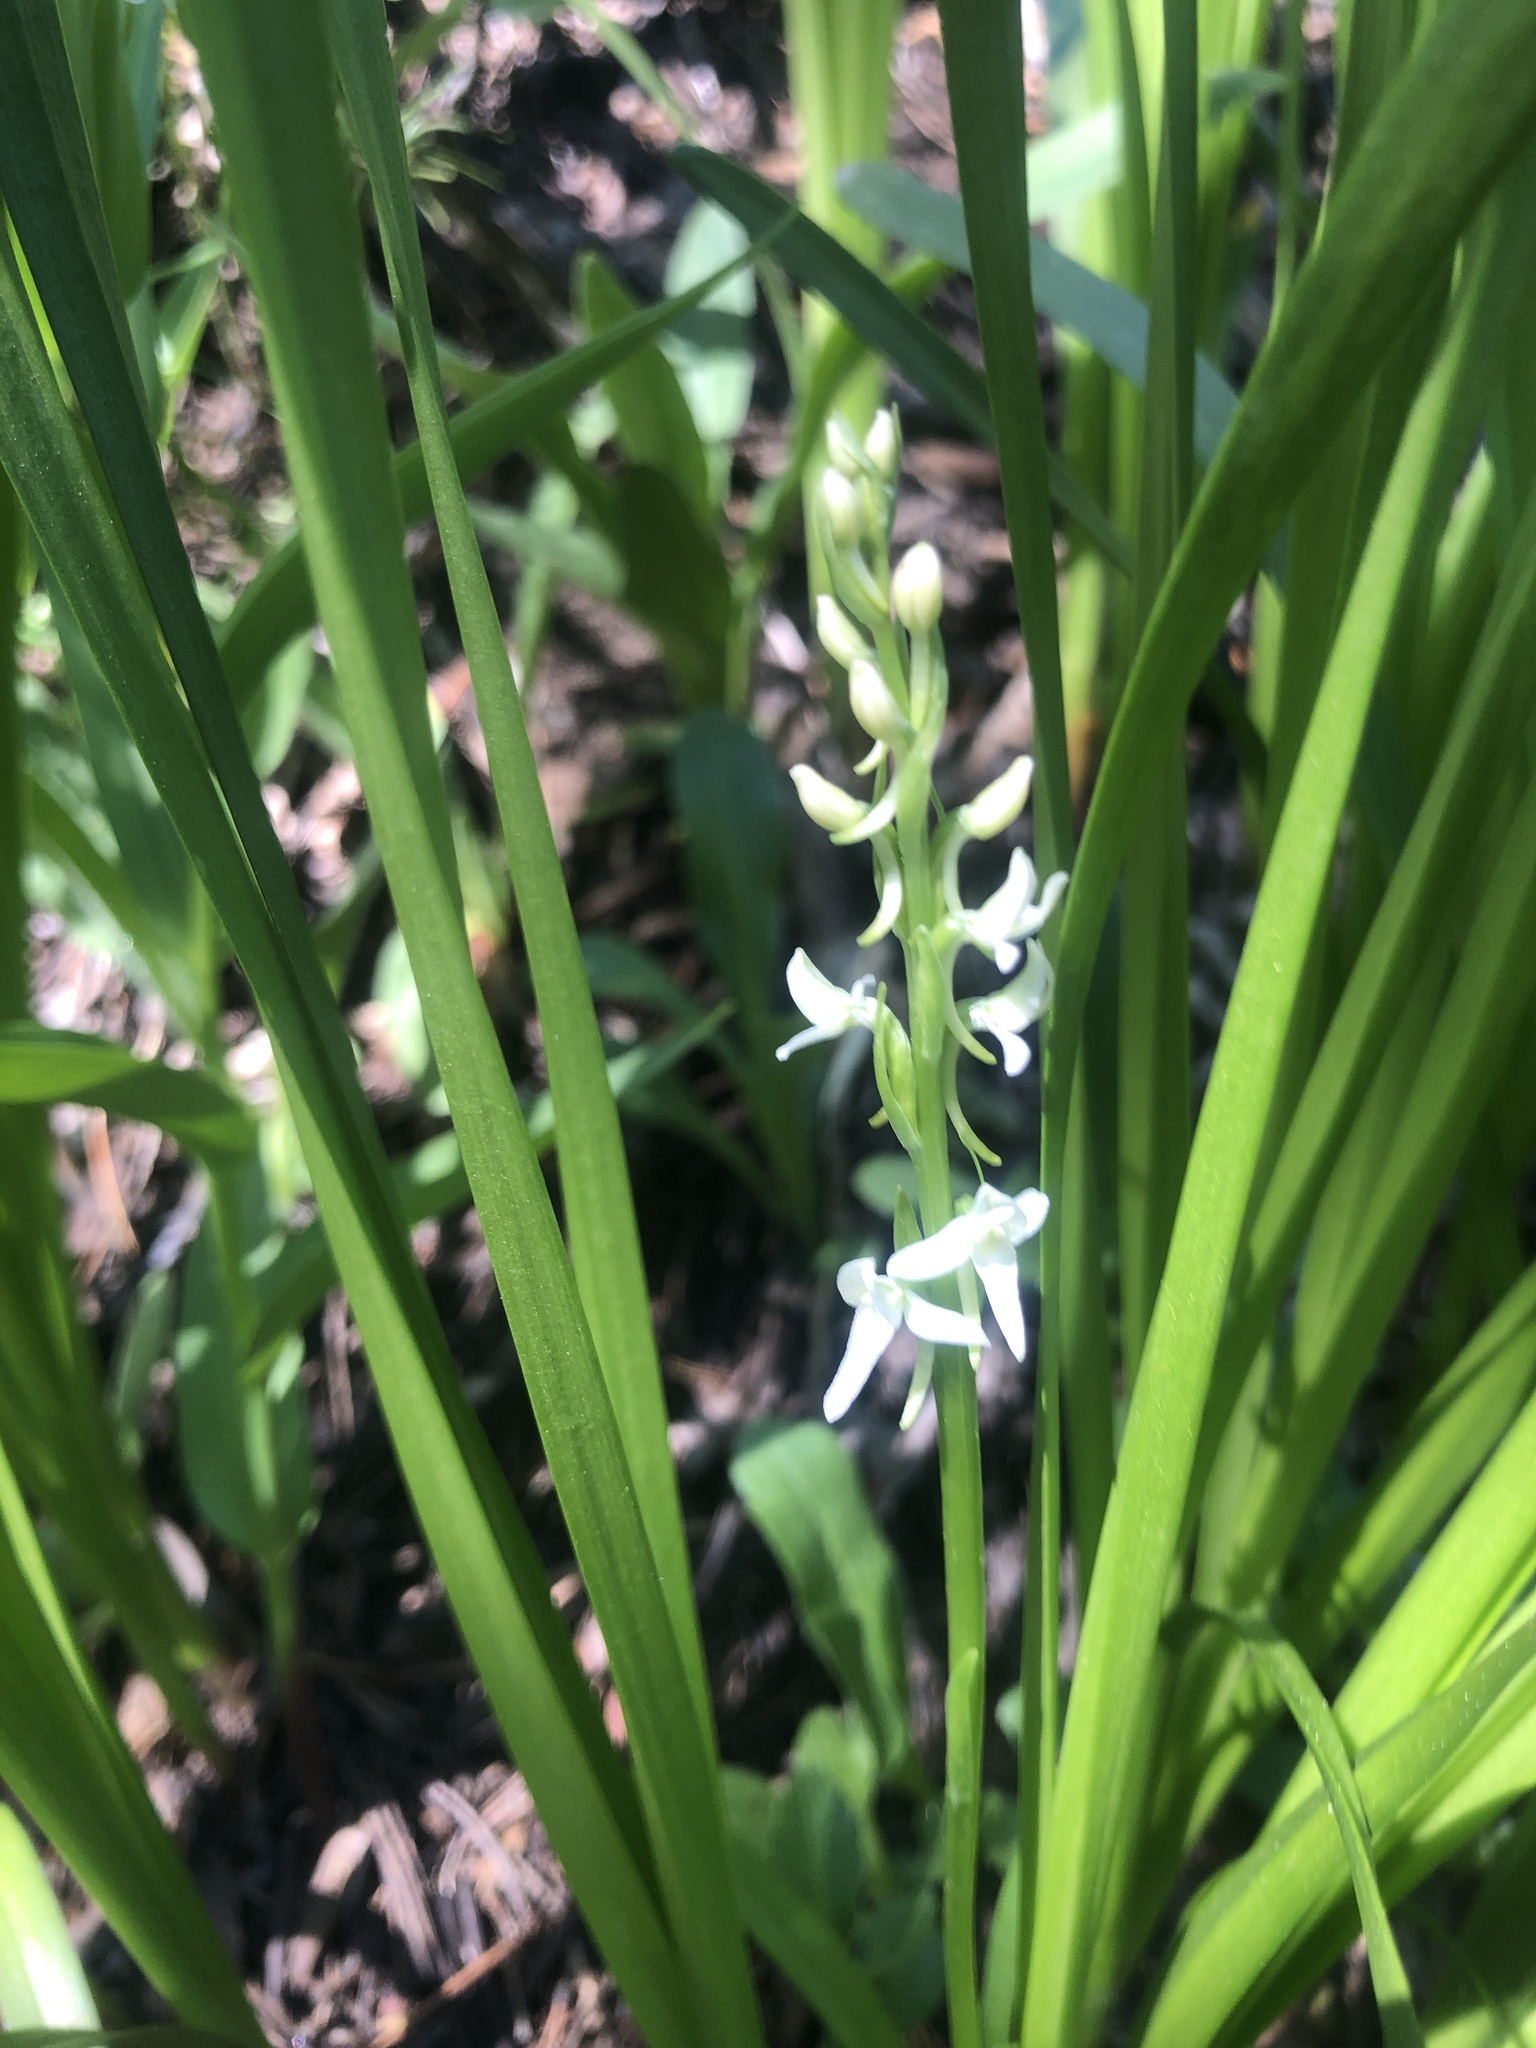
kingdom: Plantae
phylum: Tracheophyta
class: Liliopsida
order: Asparagales
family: Orchidaceae
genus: Platanthera
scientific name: Platanthera dilatata
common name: Bog candles
